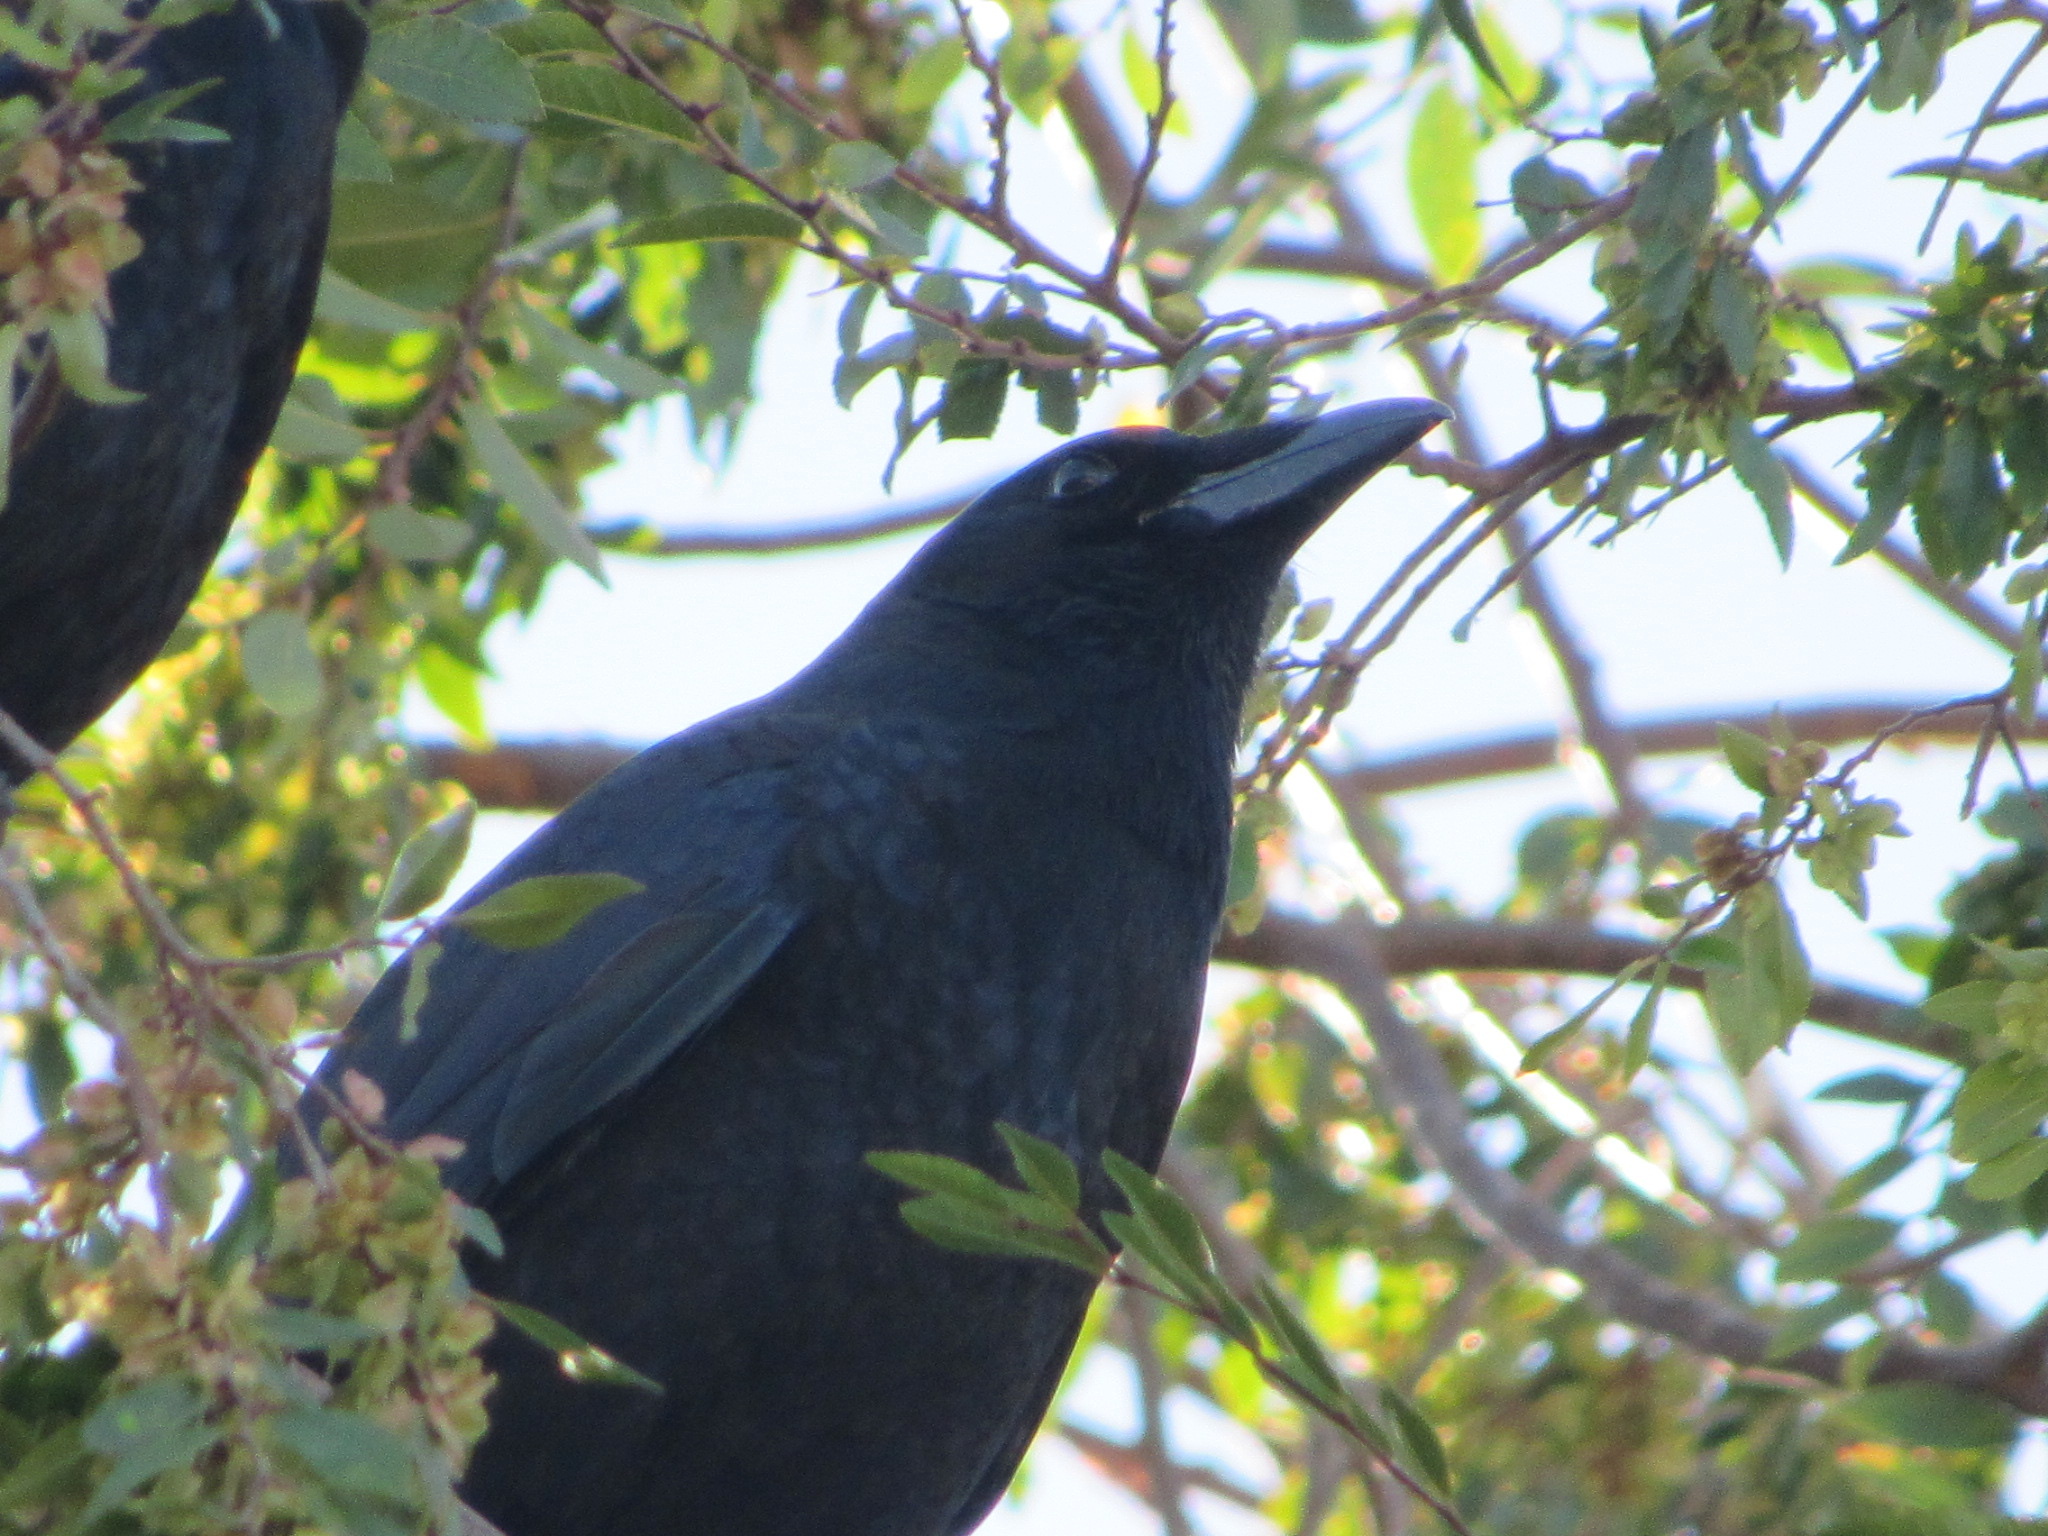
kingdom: Animalia
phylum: Chordata
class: Aves
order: Passeriformes
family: Corvidae
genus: Corvus
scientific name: Corvus brachyrhynchos
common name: American crow
